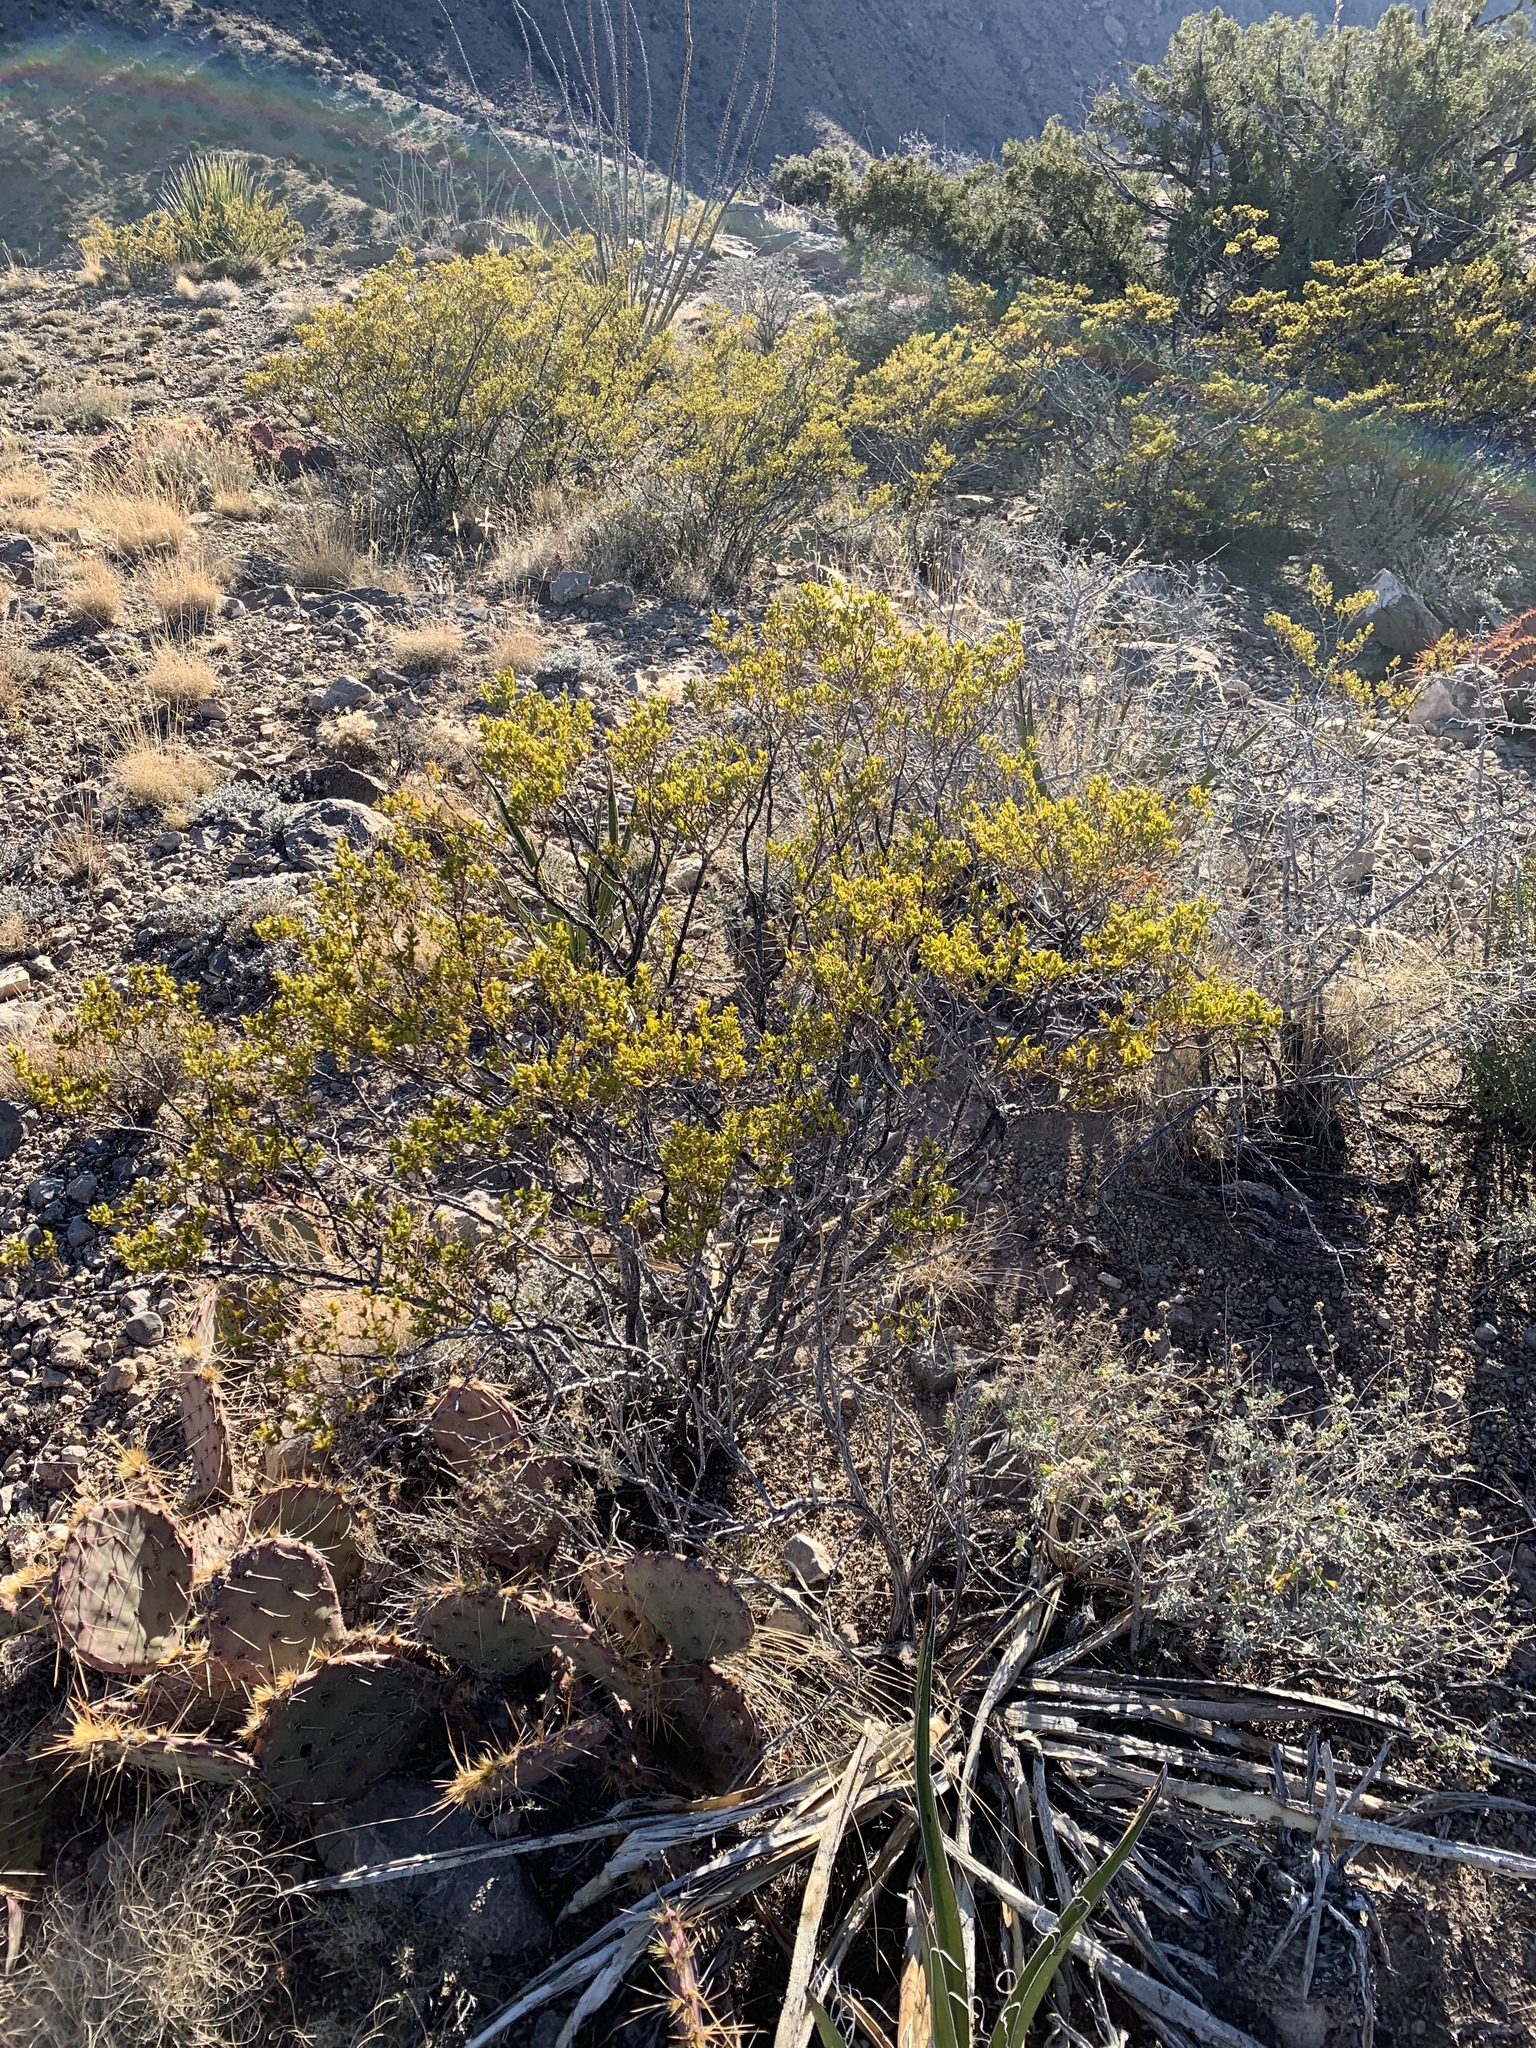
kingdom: Plantae
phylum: Tracheophyta
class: Magnoliopsida
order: Zygophyllales
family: Zygophyllaceae
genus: Larrea
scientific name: Larrea tridentata
